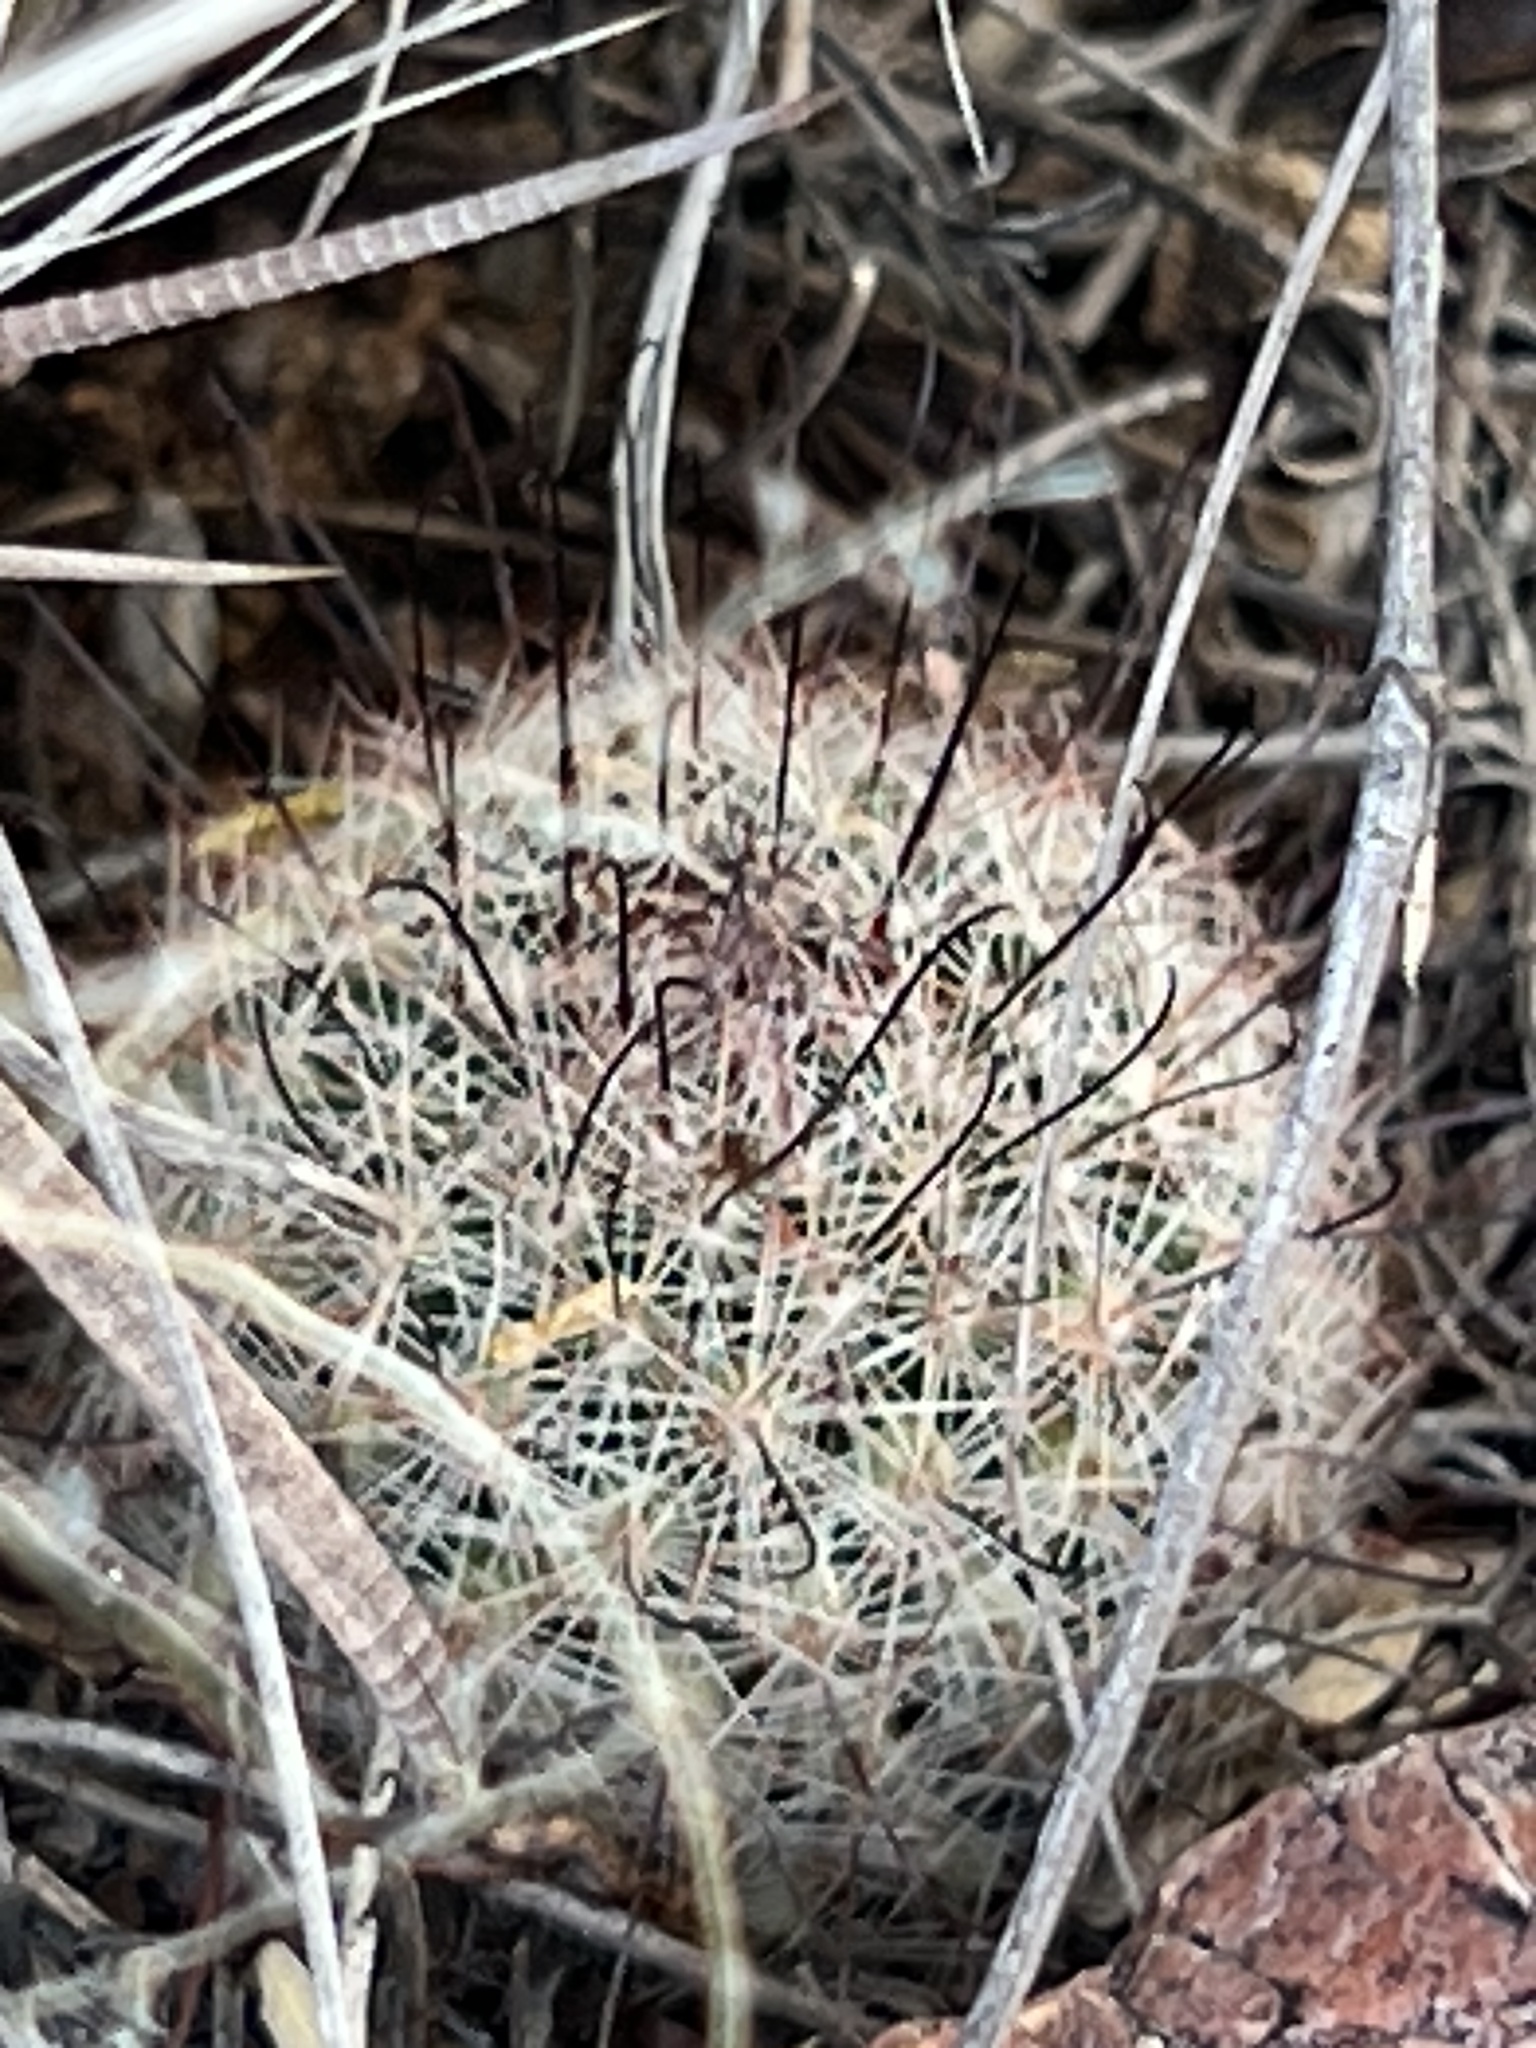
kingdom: Plantae
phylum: Tracheophyta
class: Magnoliopsida
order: Caryophyllales
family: Cactaceae
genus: Cochemiea
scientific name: Cochemiea grahamii
